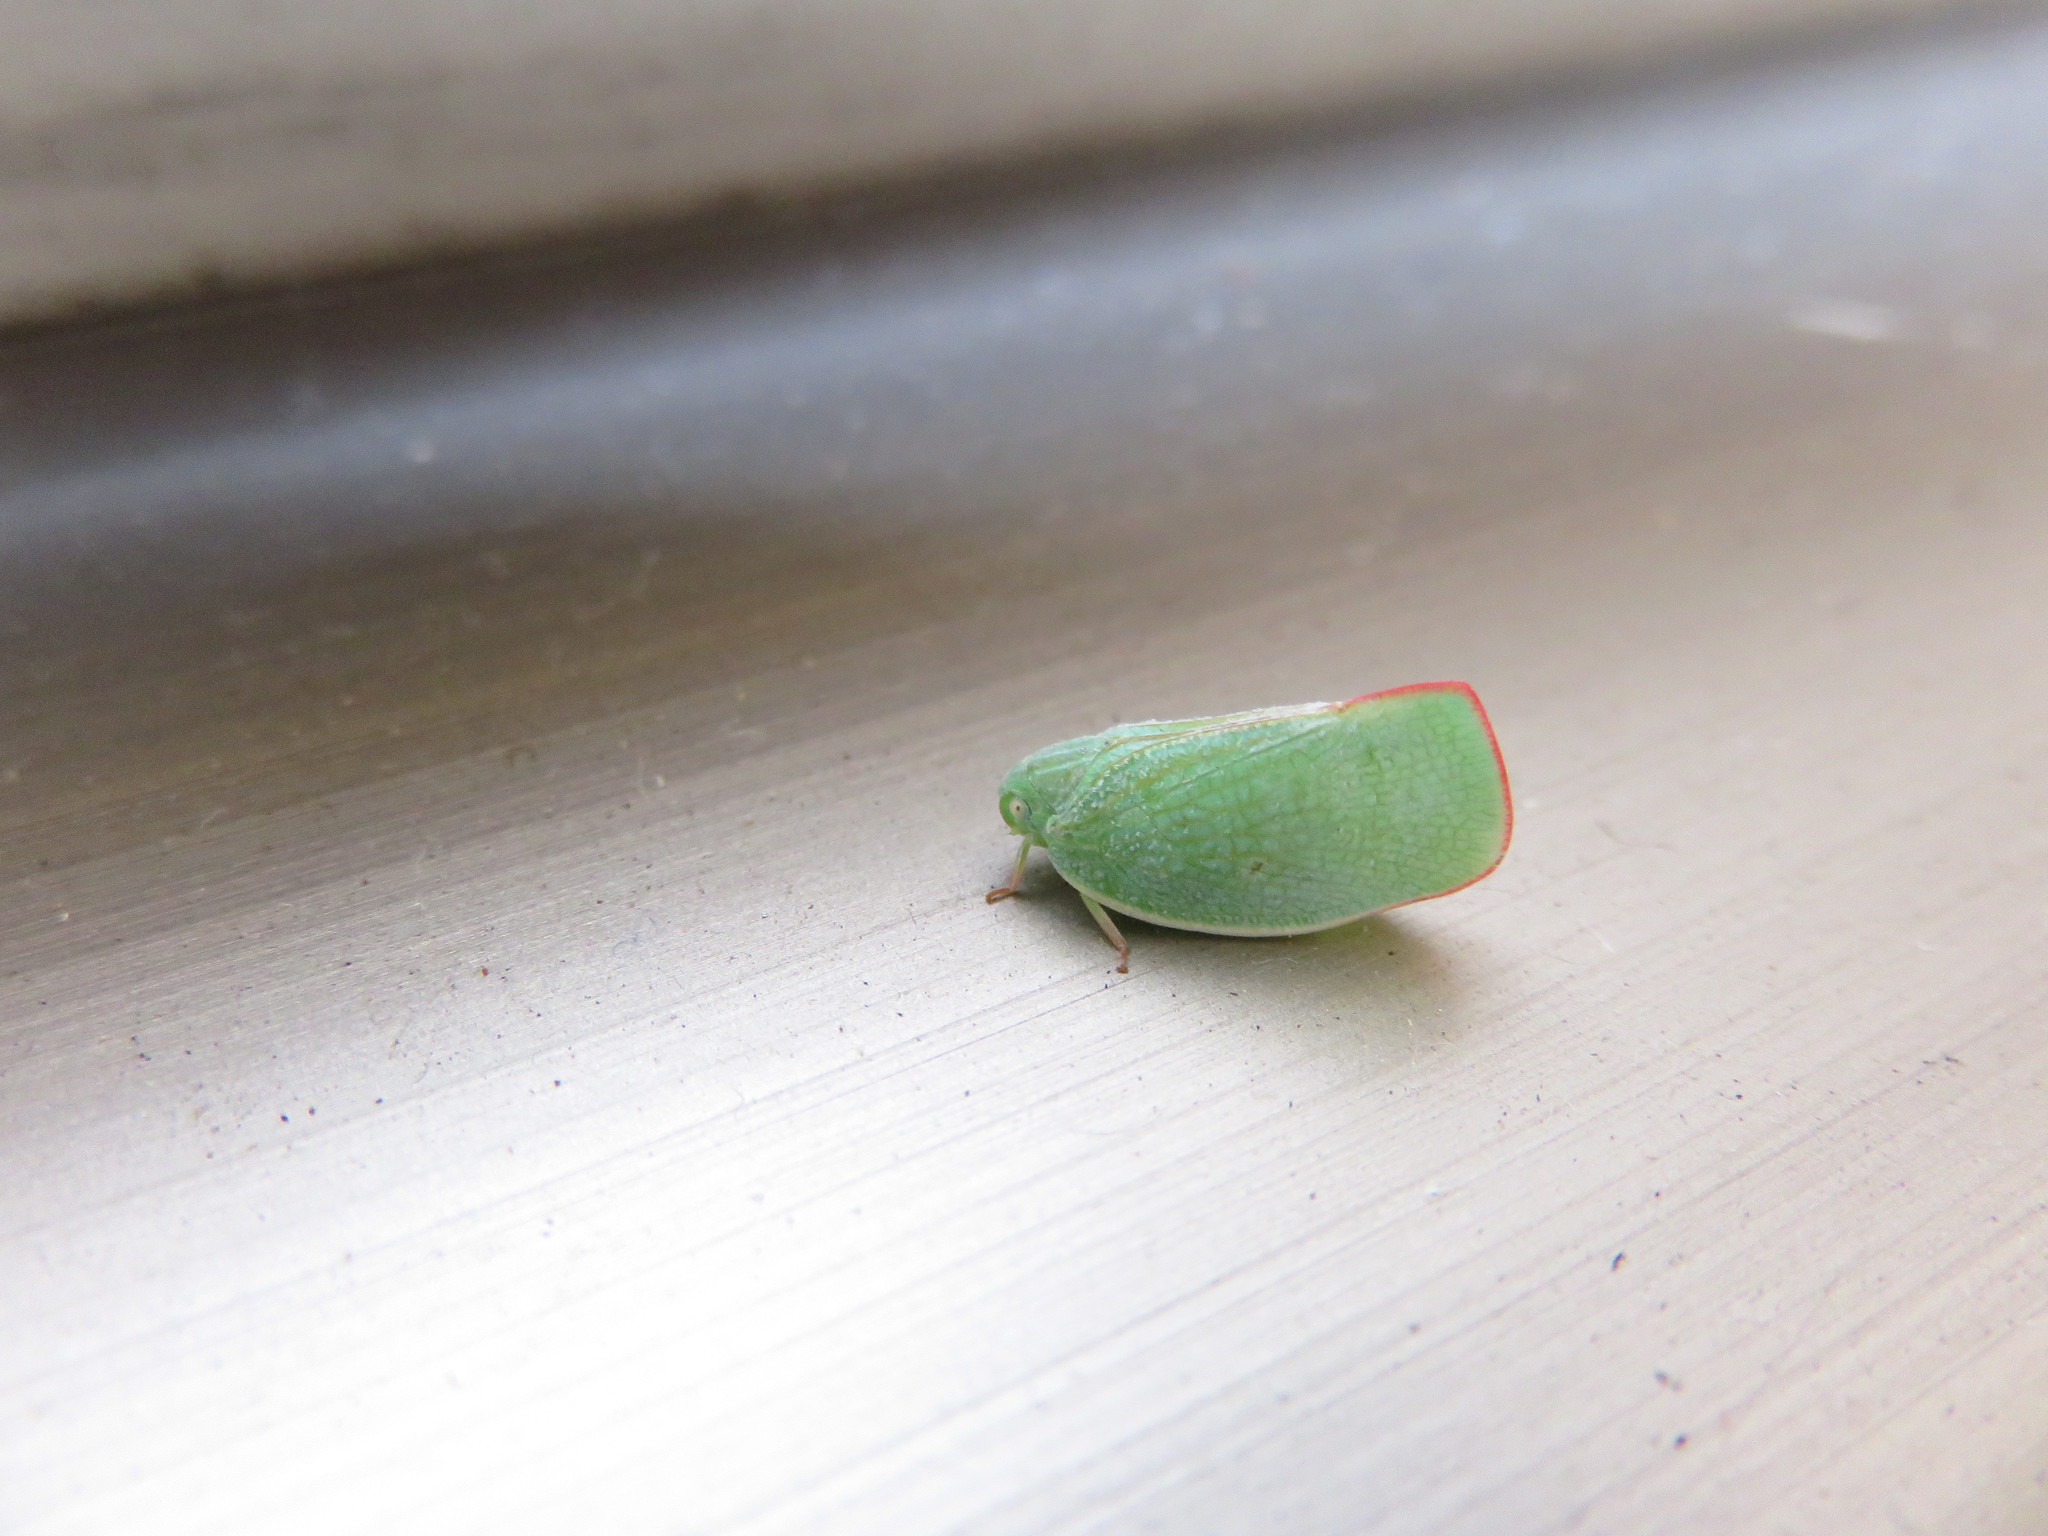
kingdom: Animalia
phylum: Arthropoda
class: Insecta
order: Hemiptera
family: Flatidae
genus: Geisha
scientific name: Geisha distinctissima
